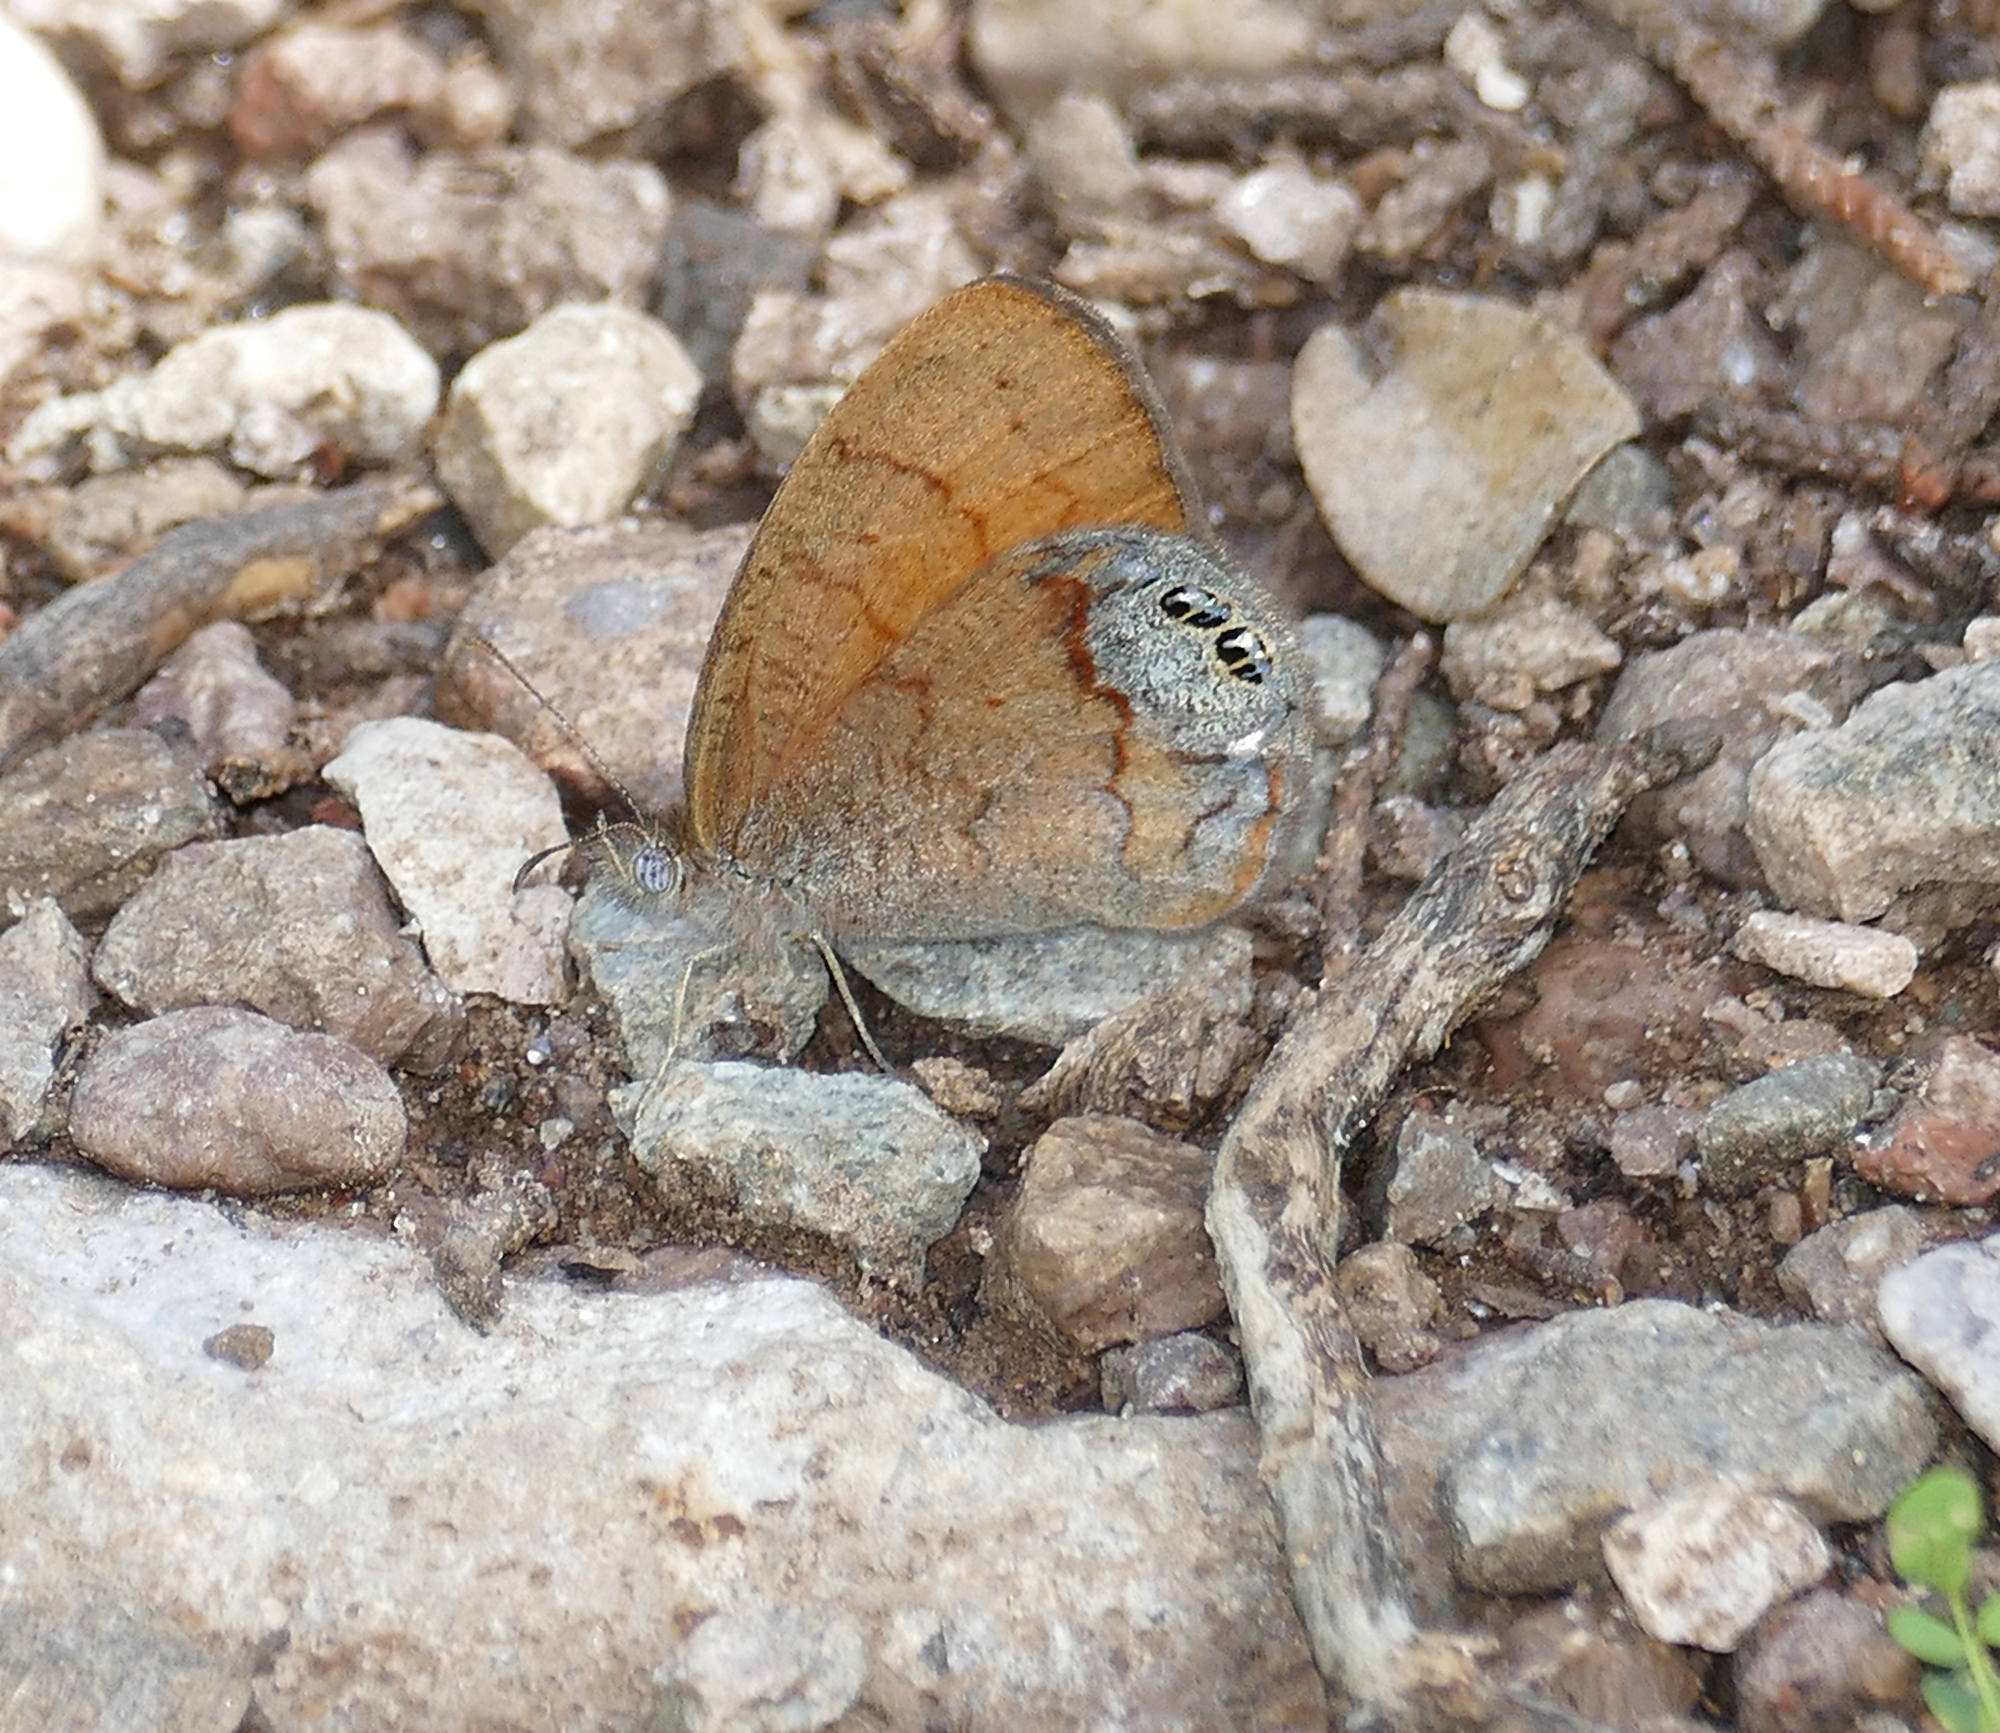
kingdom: Animalia
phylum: Arthropoda
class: Insecta
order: Lepidoptera
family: Nymphalidae
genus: Euptychia
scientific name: Euptychia Cyllopsis pertepida
